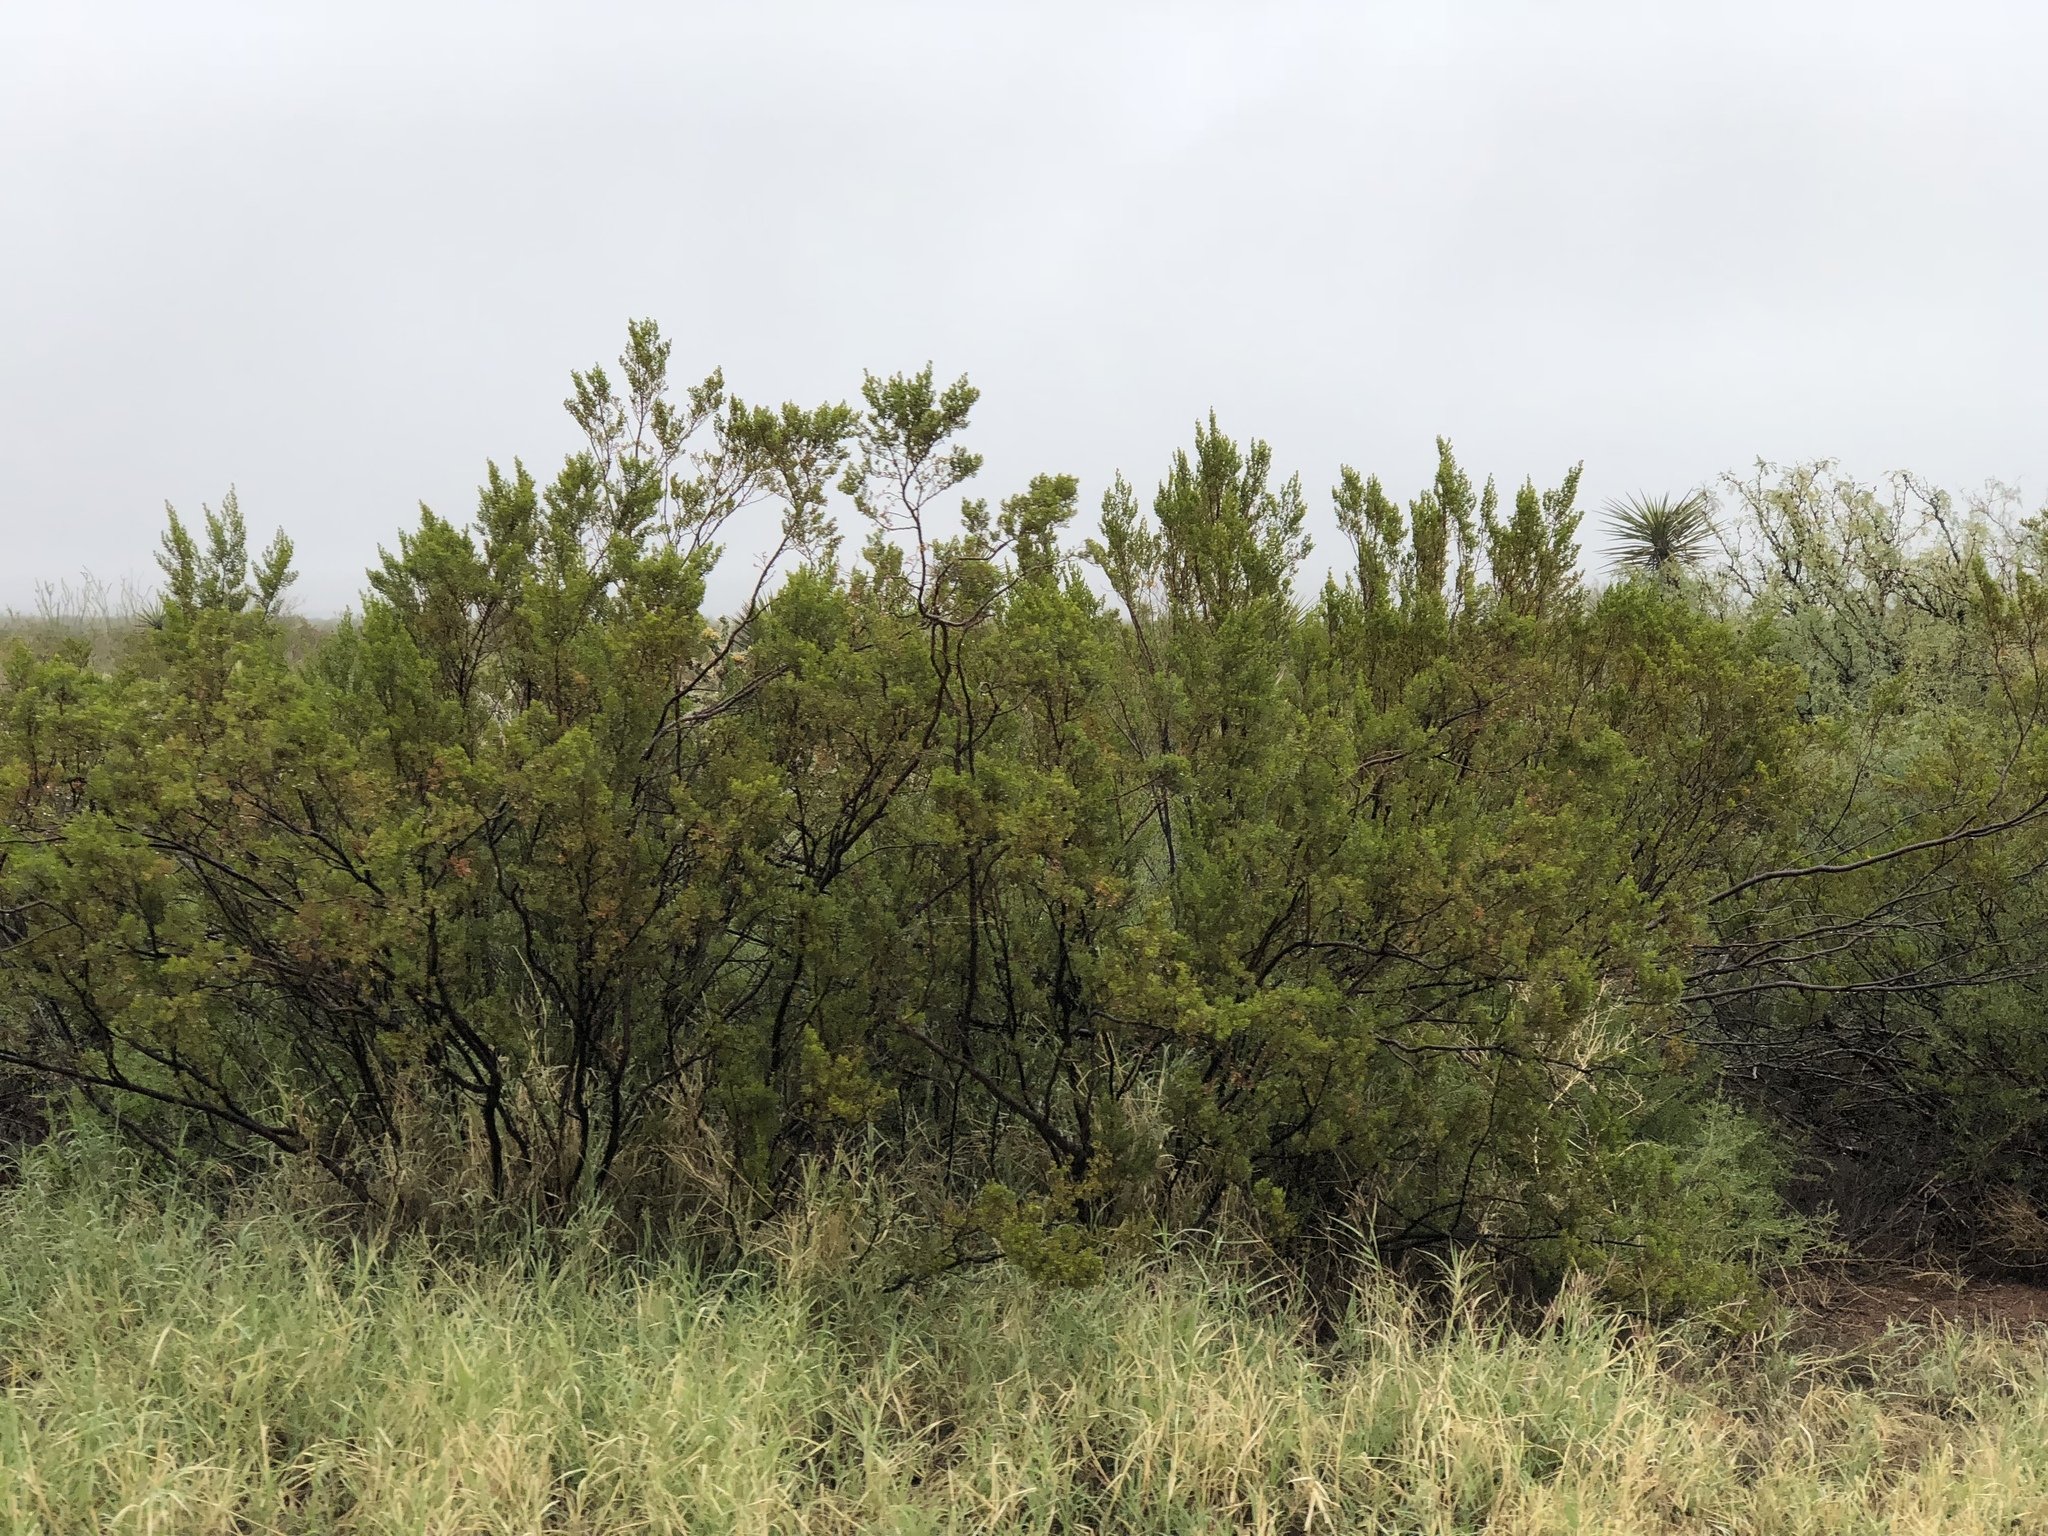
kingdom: Plantae
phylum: Tracheophyta
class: Magnoliopsida
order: Zygophyllales
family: Zygophyllaceae
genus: Larrea
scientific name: Larrea tridentata
